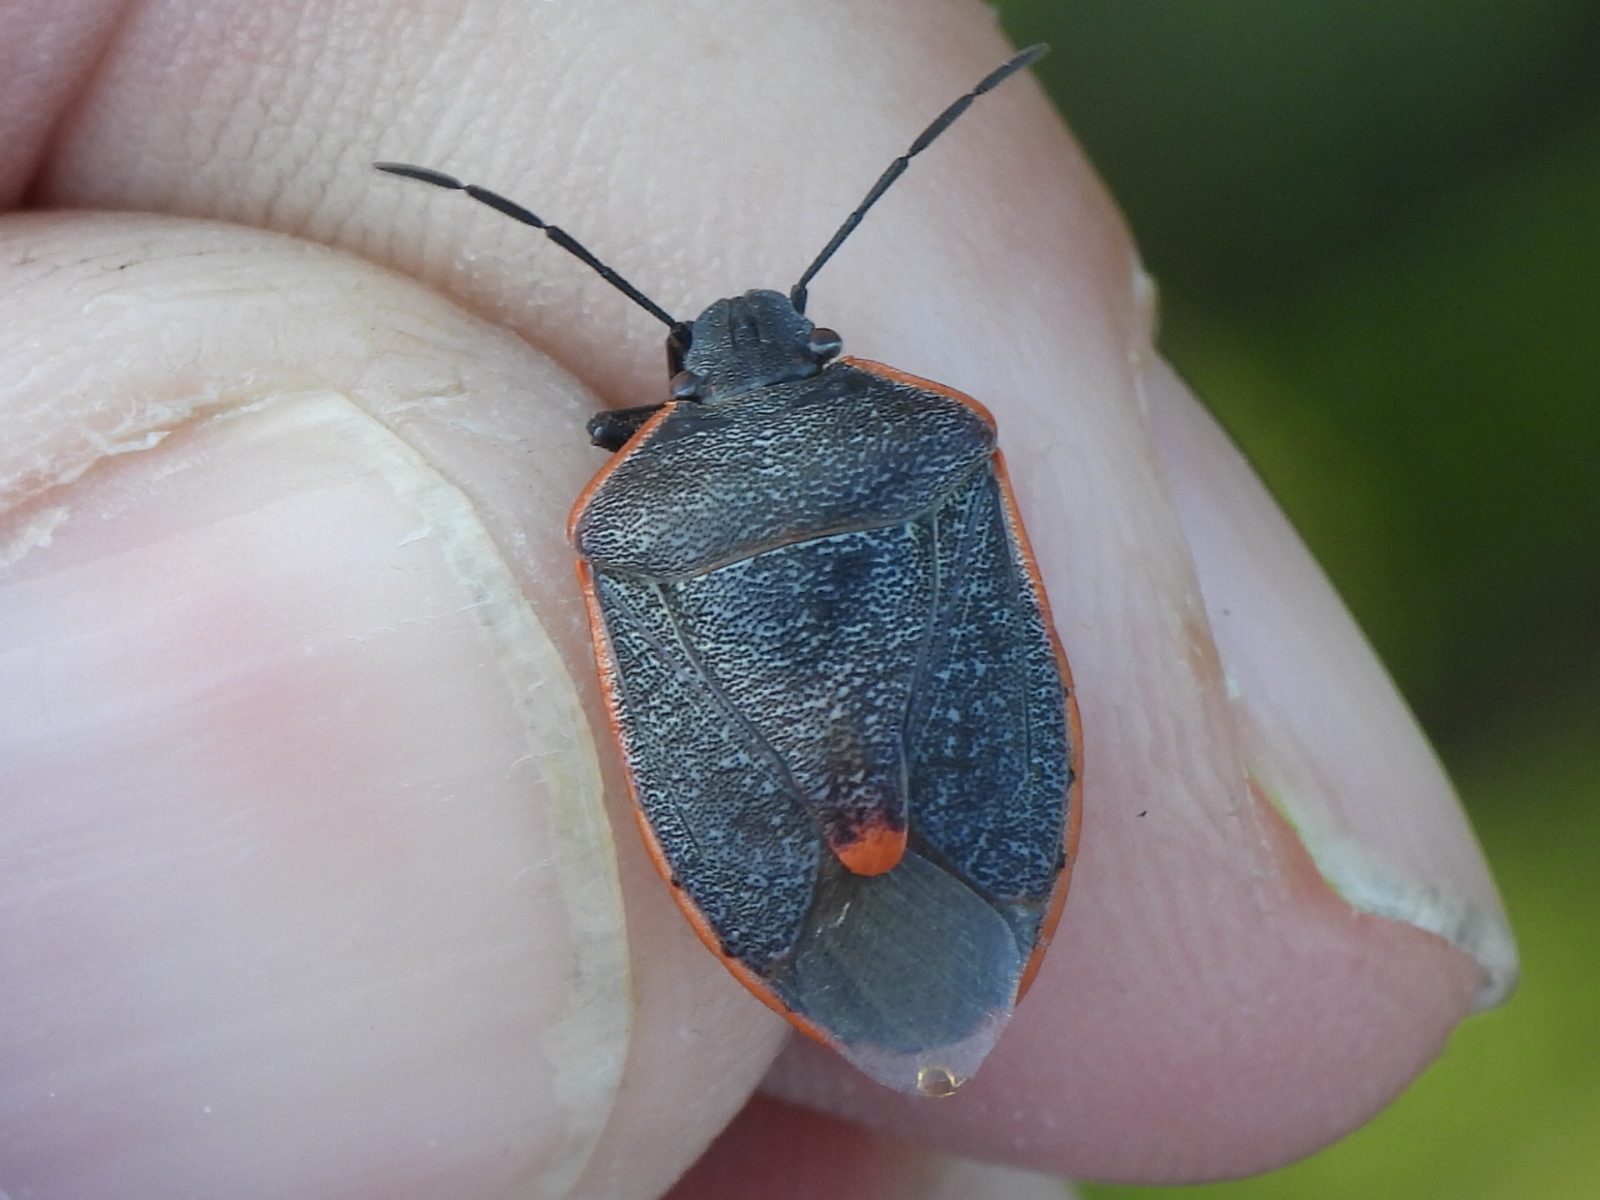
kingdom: Animalia
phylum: Arthropoda
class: Insecta
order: Hemiptera
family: Pentatomidae
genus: Chlorochroa
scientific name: Chlorochroa ligata
